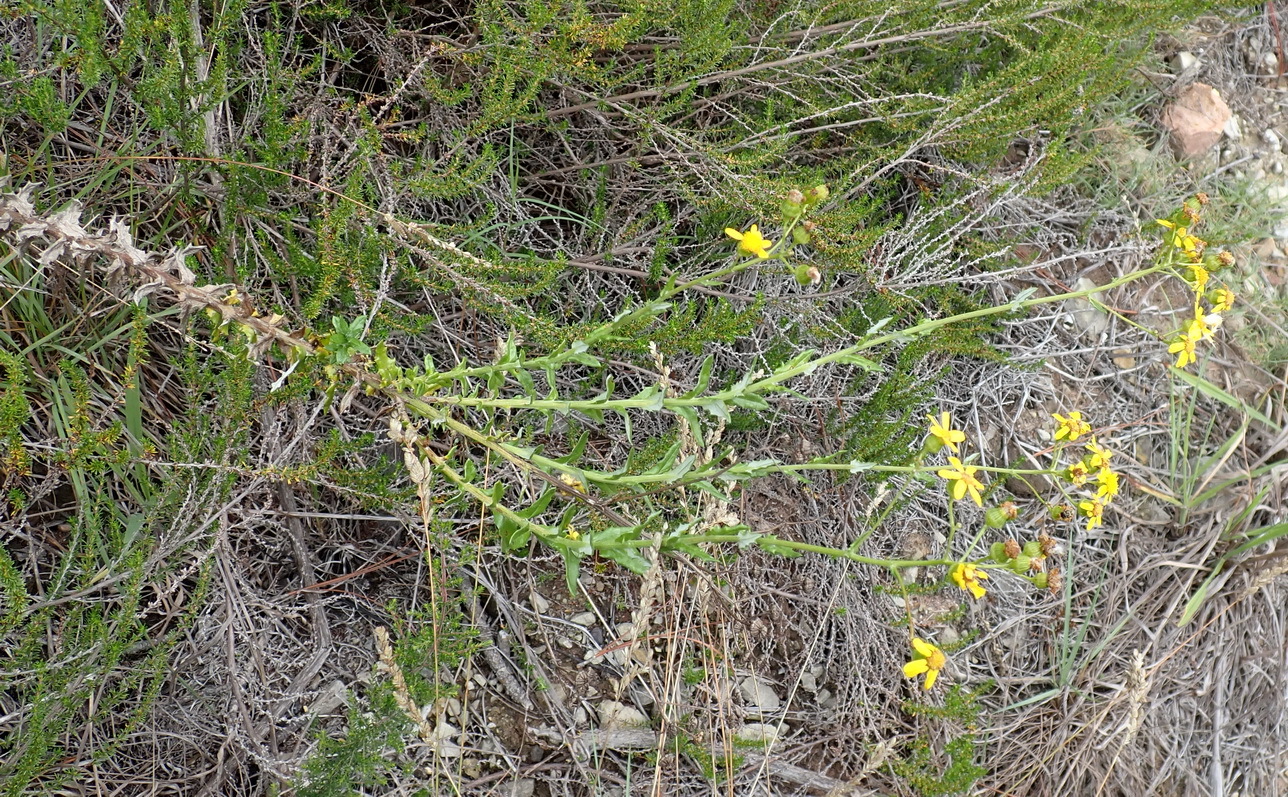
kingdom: Plantae
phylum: Tracheophyta
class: Magnoliopsida
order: Asterales
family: Asteraceae
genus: Senecio
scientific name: Senecio ilicifolius
